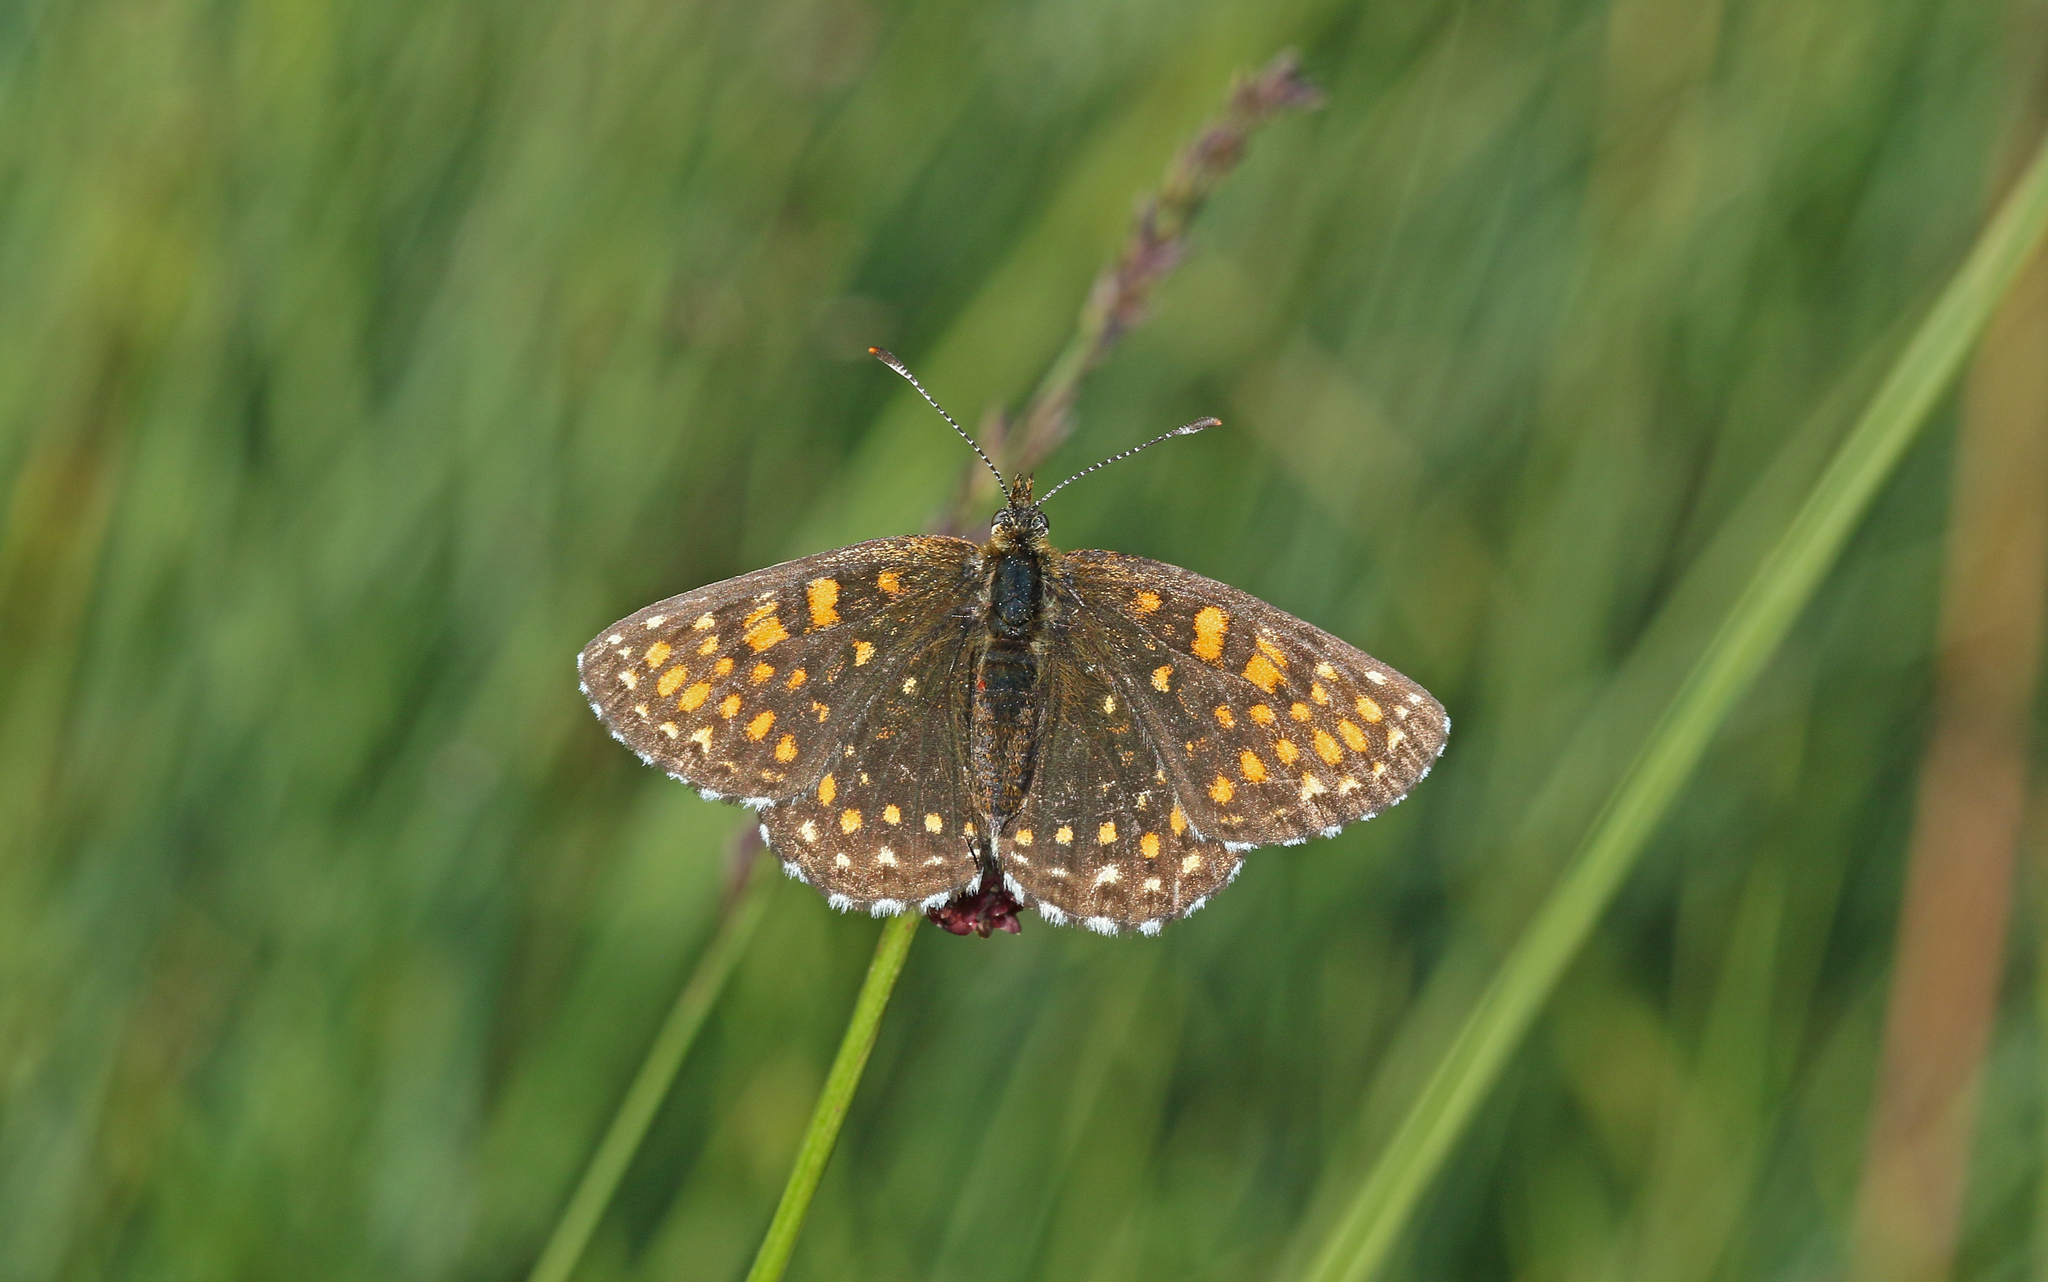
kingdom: Animalia
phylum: Arthropoda
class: Insecta
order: Lepidoptera
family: Nymphalidae
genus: Melitaea
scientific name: Melitaea diamina
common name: False heath fritillary
